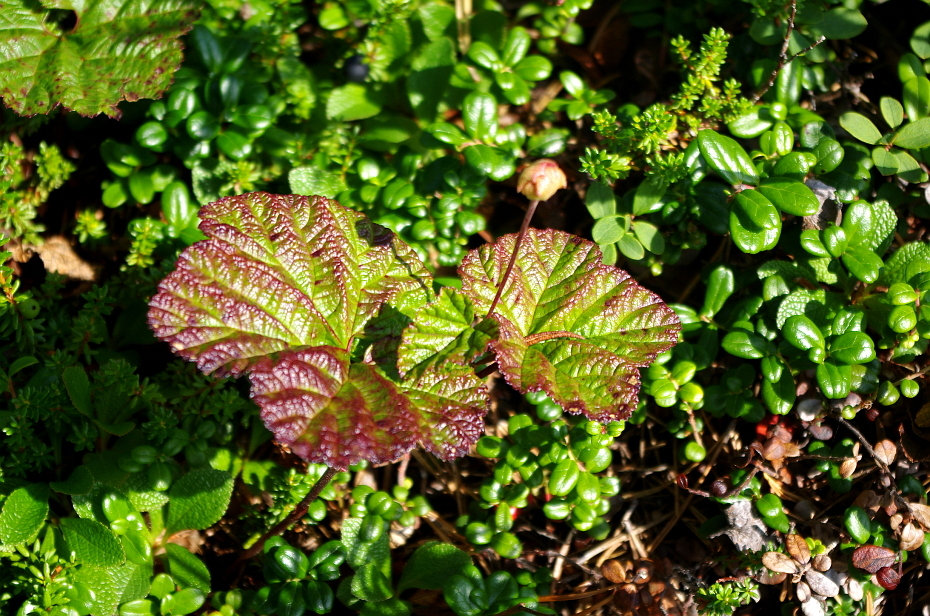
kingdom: Plantae
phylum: Tracheophyta
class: Magnoliopsida
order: Rosales
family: Rosaceae
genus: Rubus
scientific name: Rubus chamaemorus
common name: Cloudberry
